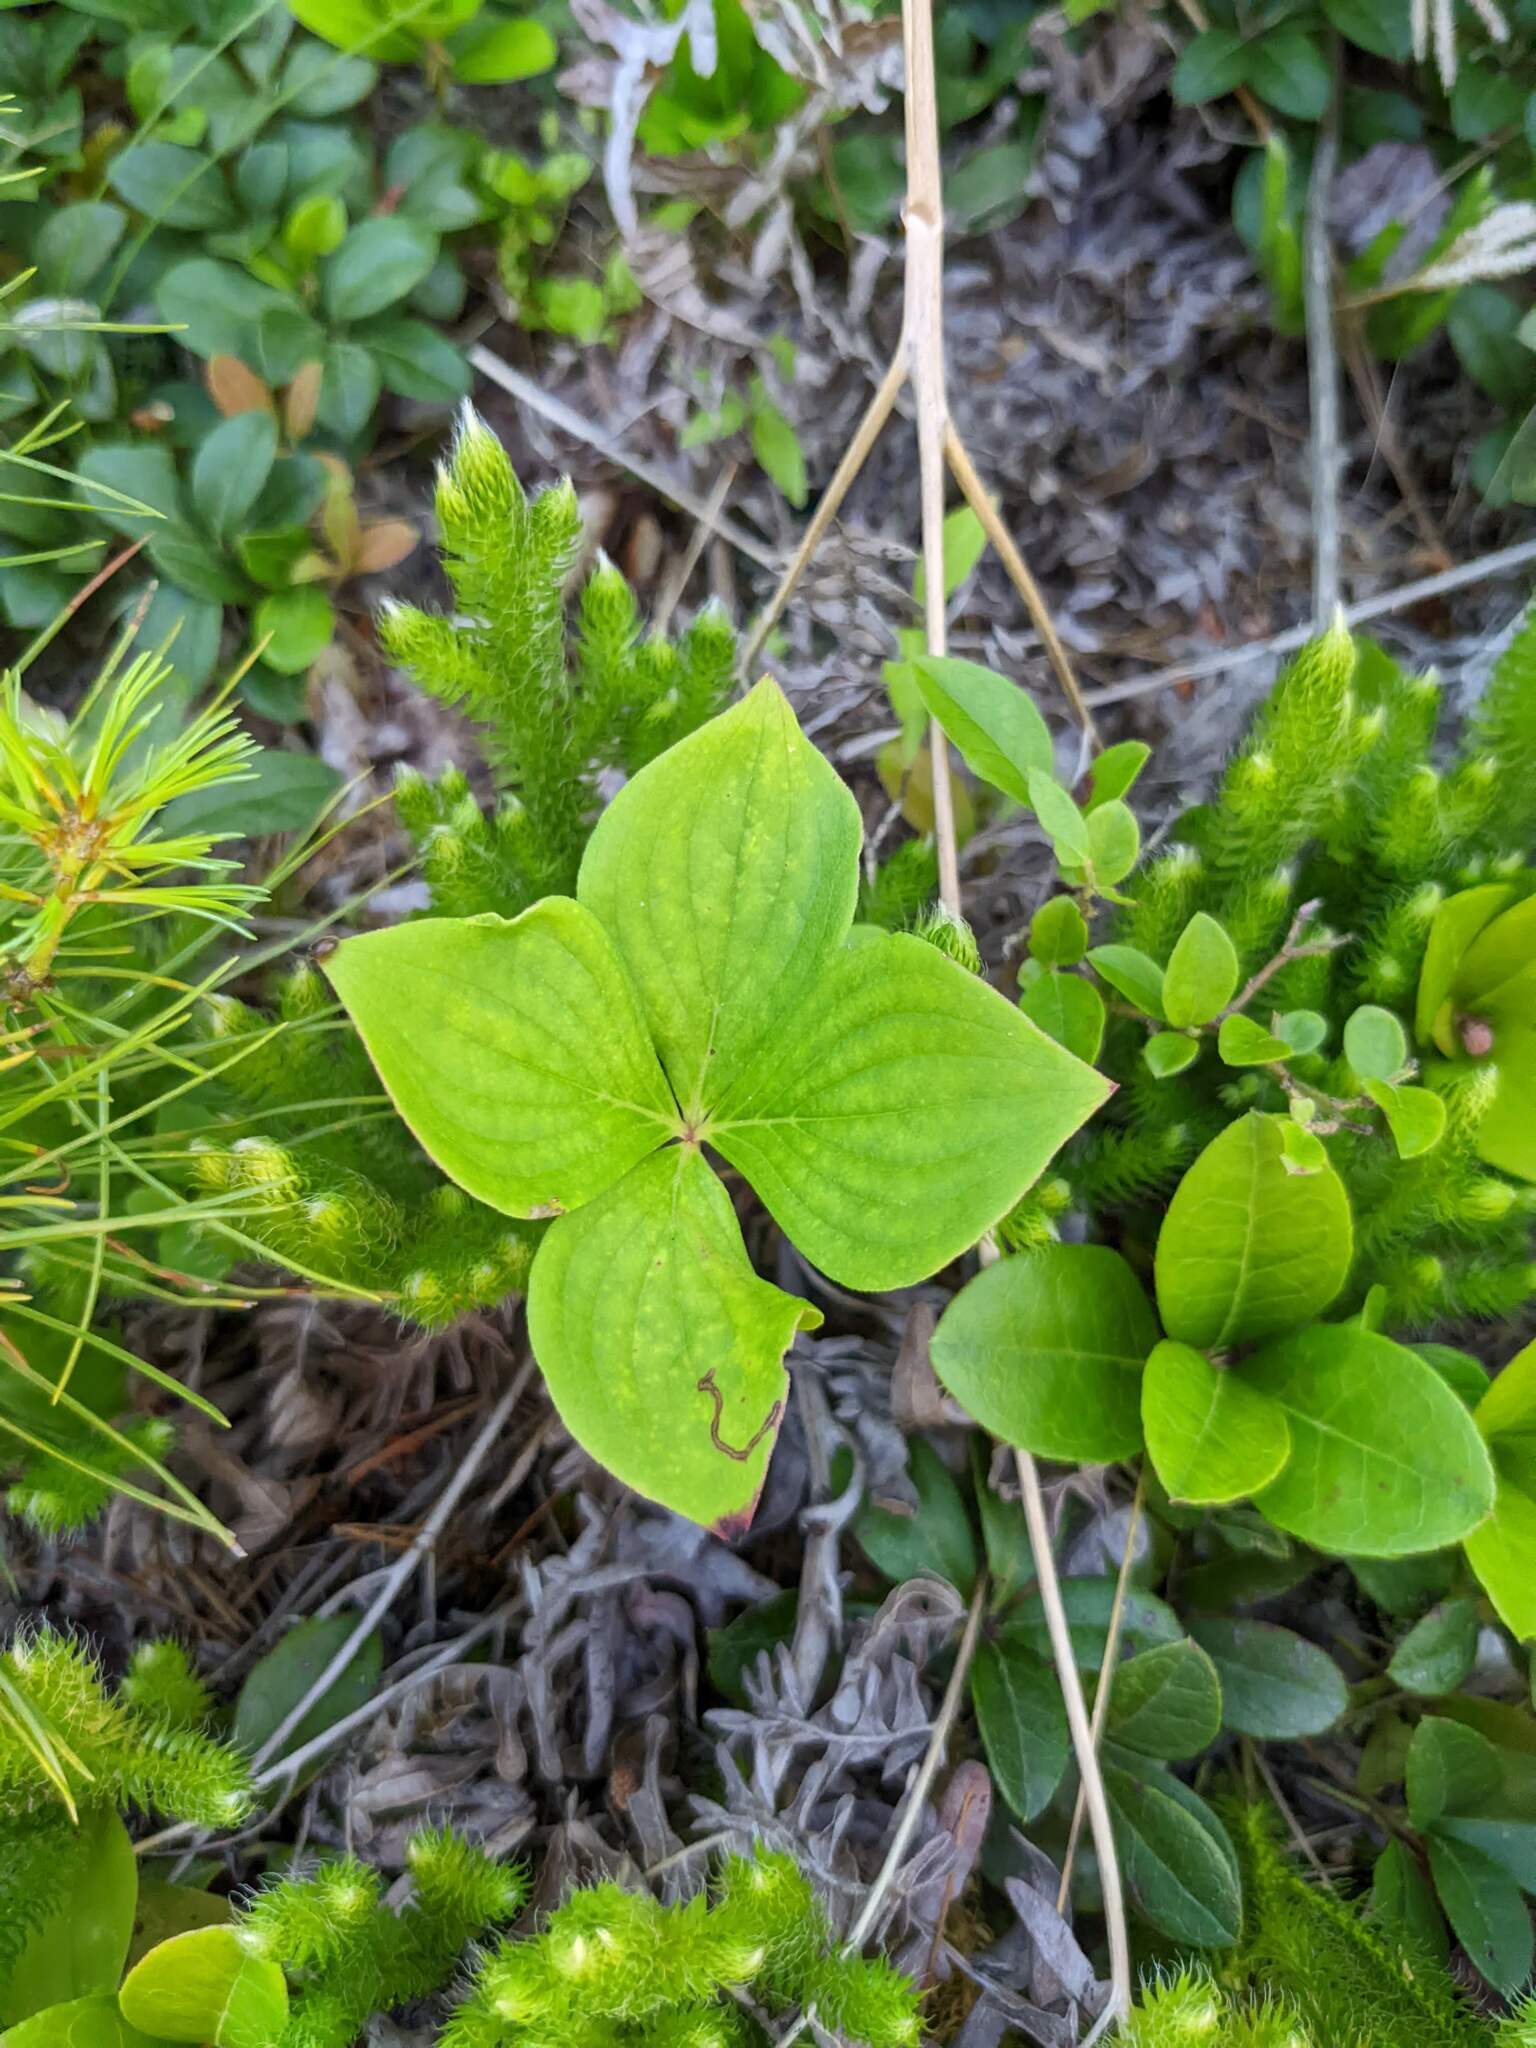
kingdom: Plantae
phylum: Tracheophyta
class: Magnoliopsida
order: Cornales
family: Cornaceae
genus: Cornus
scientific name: Cornus canadensis
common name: Creeping dogwood
